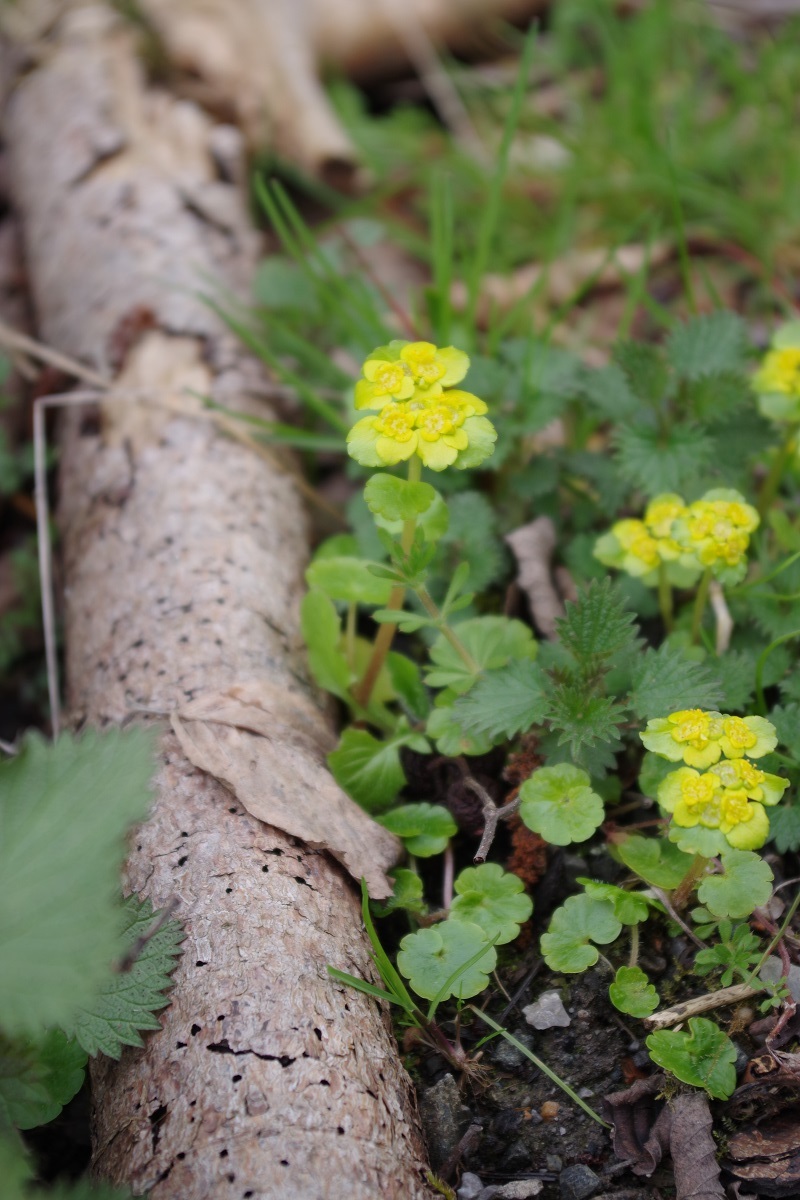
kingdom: Plantae
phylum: Tracheophyta
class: Magnoliopsida
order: Saxifragales
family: Saxifragaceae
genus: Chrysosplenium
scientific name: Chrysosplenium alternifolium
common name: Alternate-leaved golden-saxifrage
